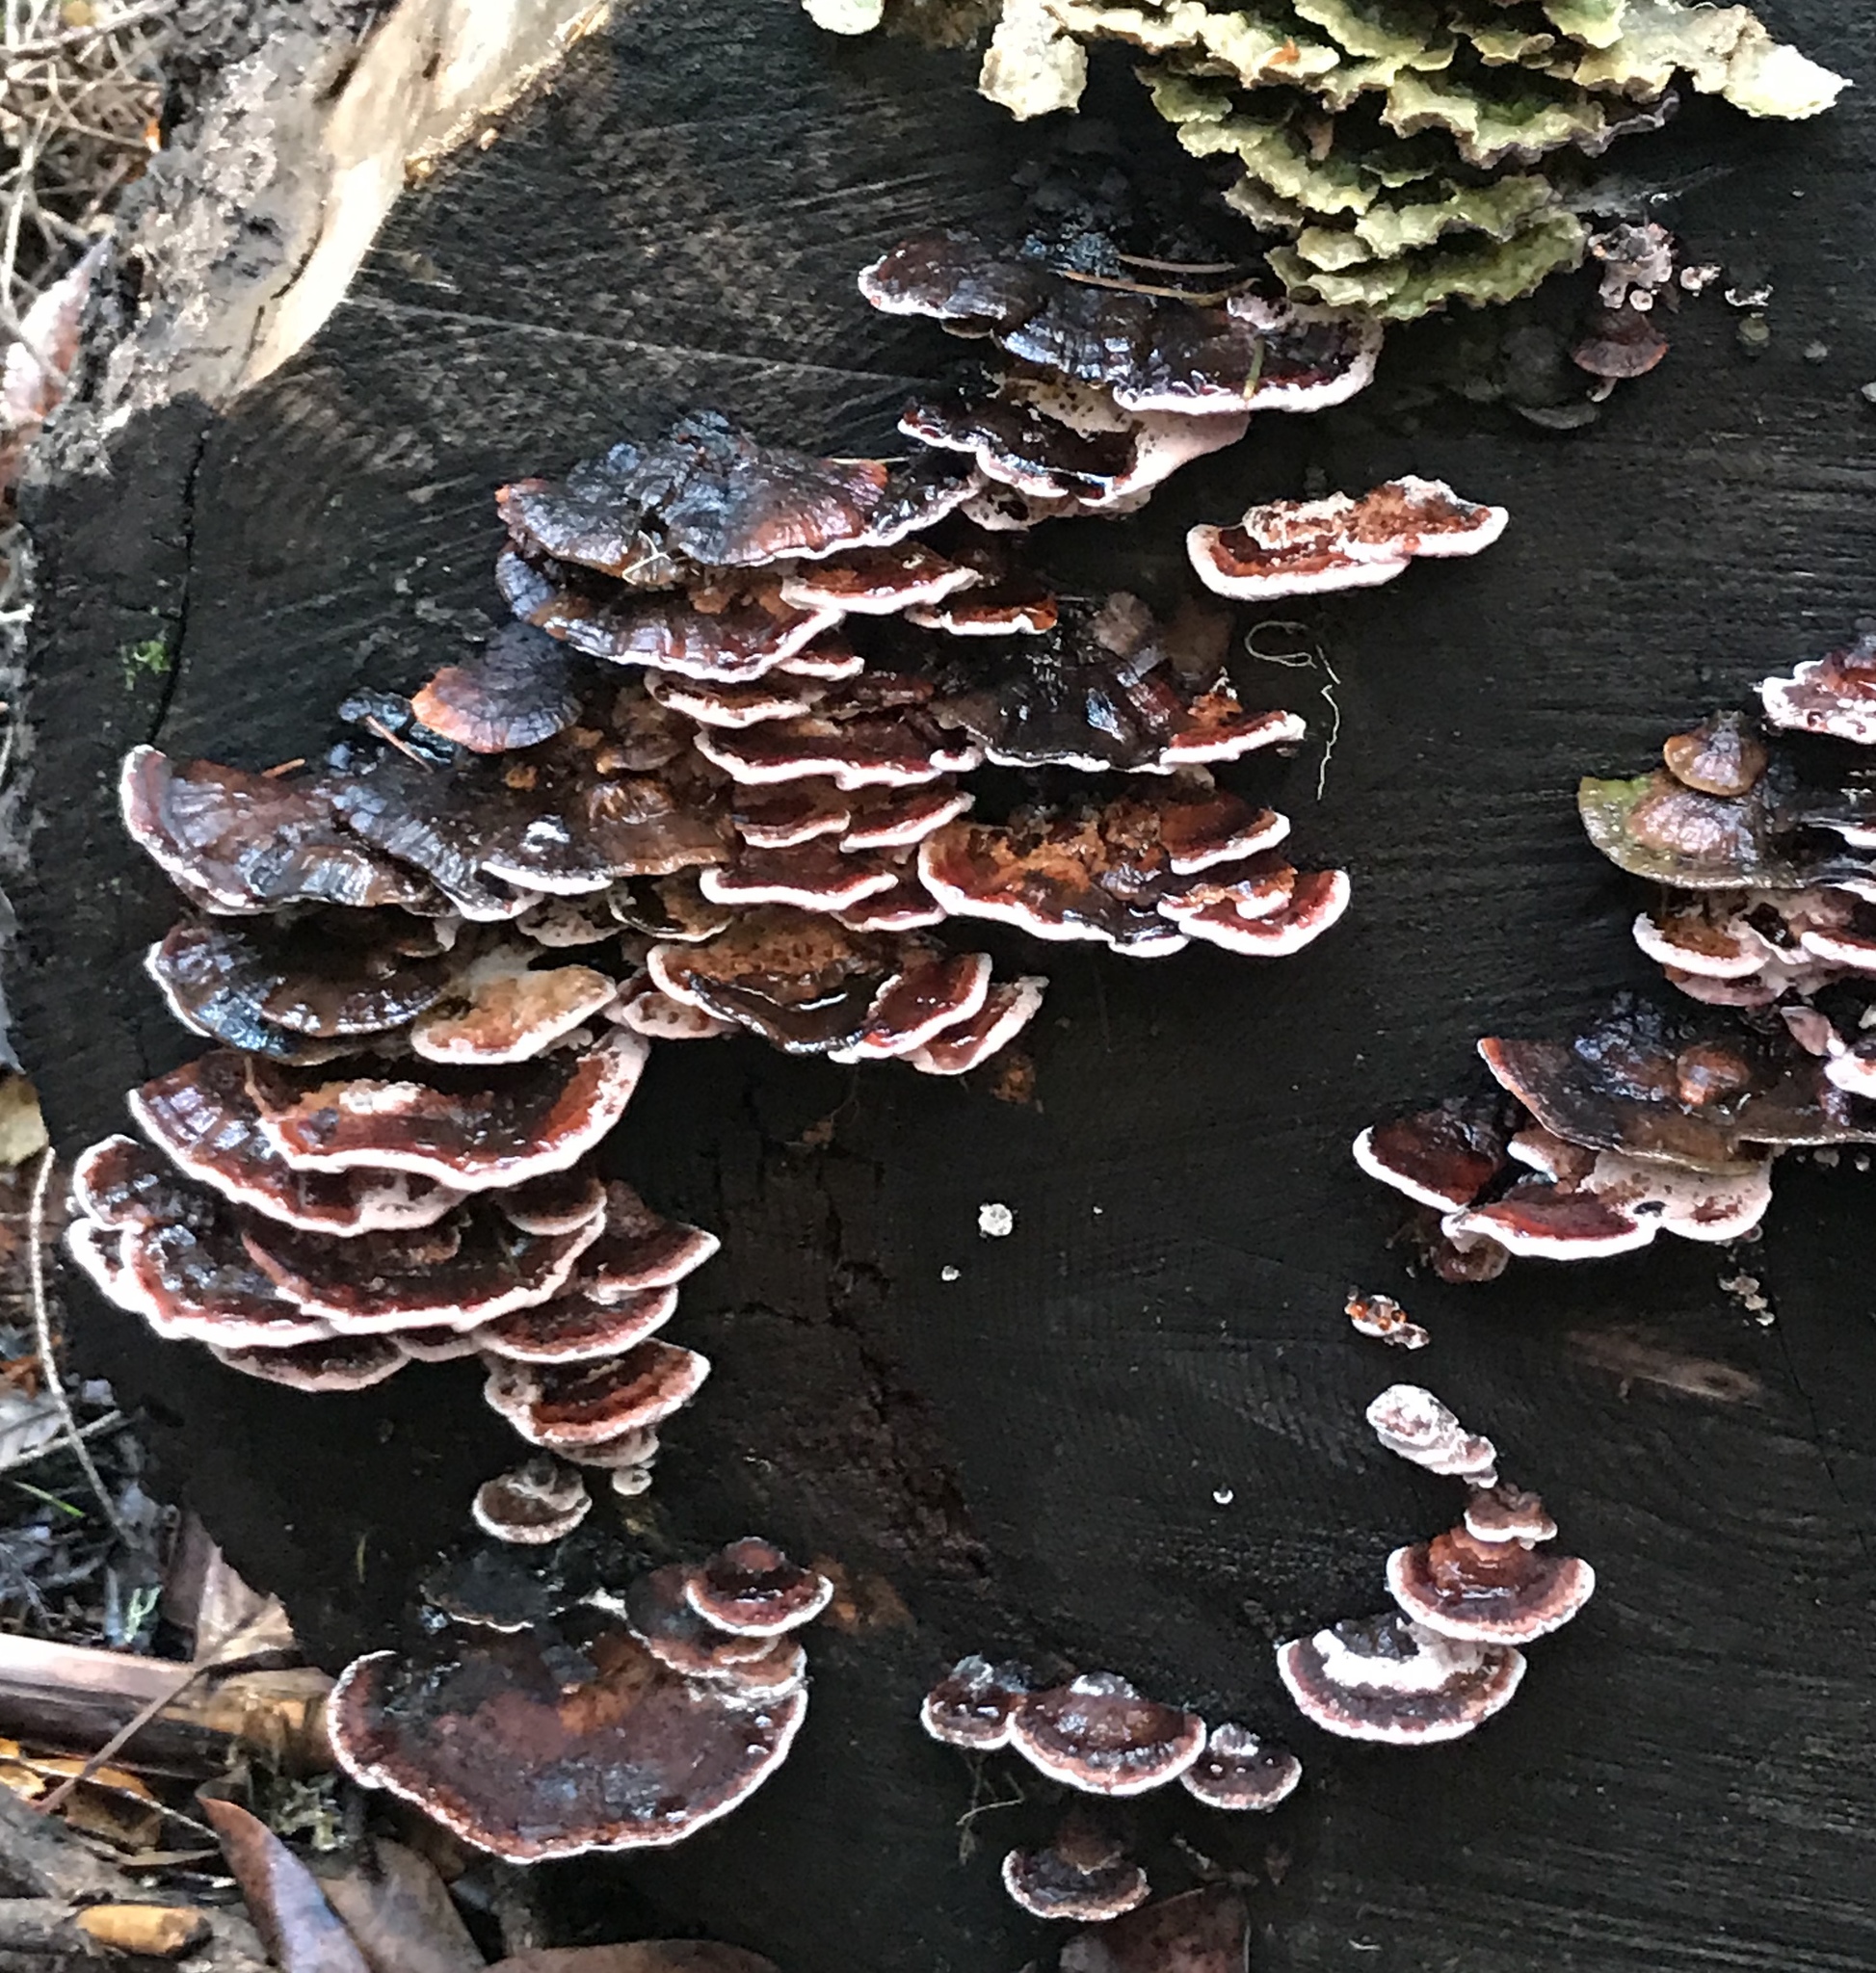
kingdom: Fungi
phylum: Basidiomycota
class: Agaricomycetes
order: Polyporales
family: Fomitopsidaceae
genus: Rhodofomes
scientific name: Rhodofomes cajanderi
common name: Rosy conk
